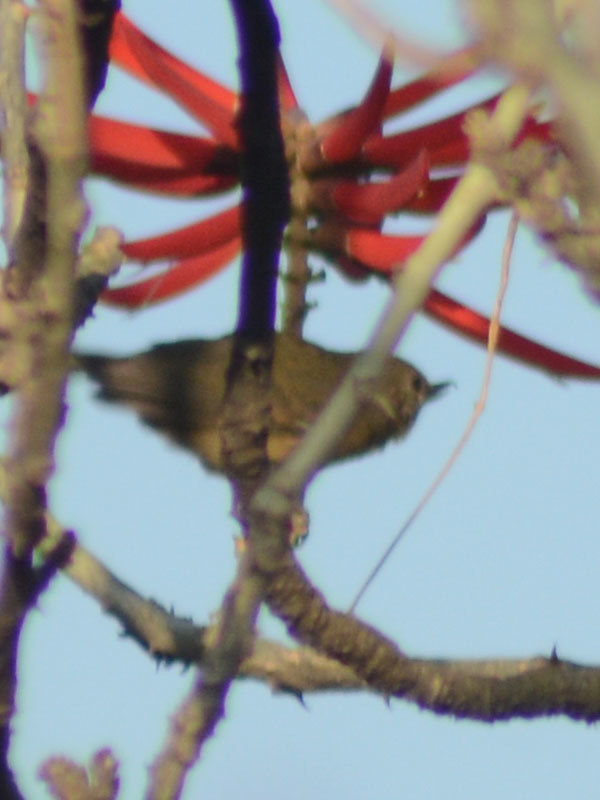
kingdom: Animalia
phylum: Chordata
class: Aves
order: Passeriformes
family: Thraupidae
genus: Diglossa
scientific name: Diglossa baritula
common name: Cinnamon-bellied flowerpiercer
